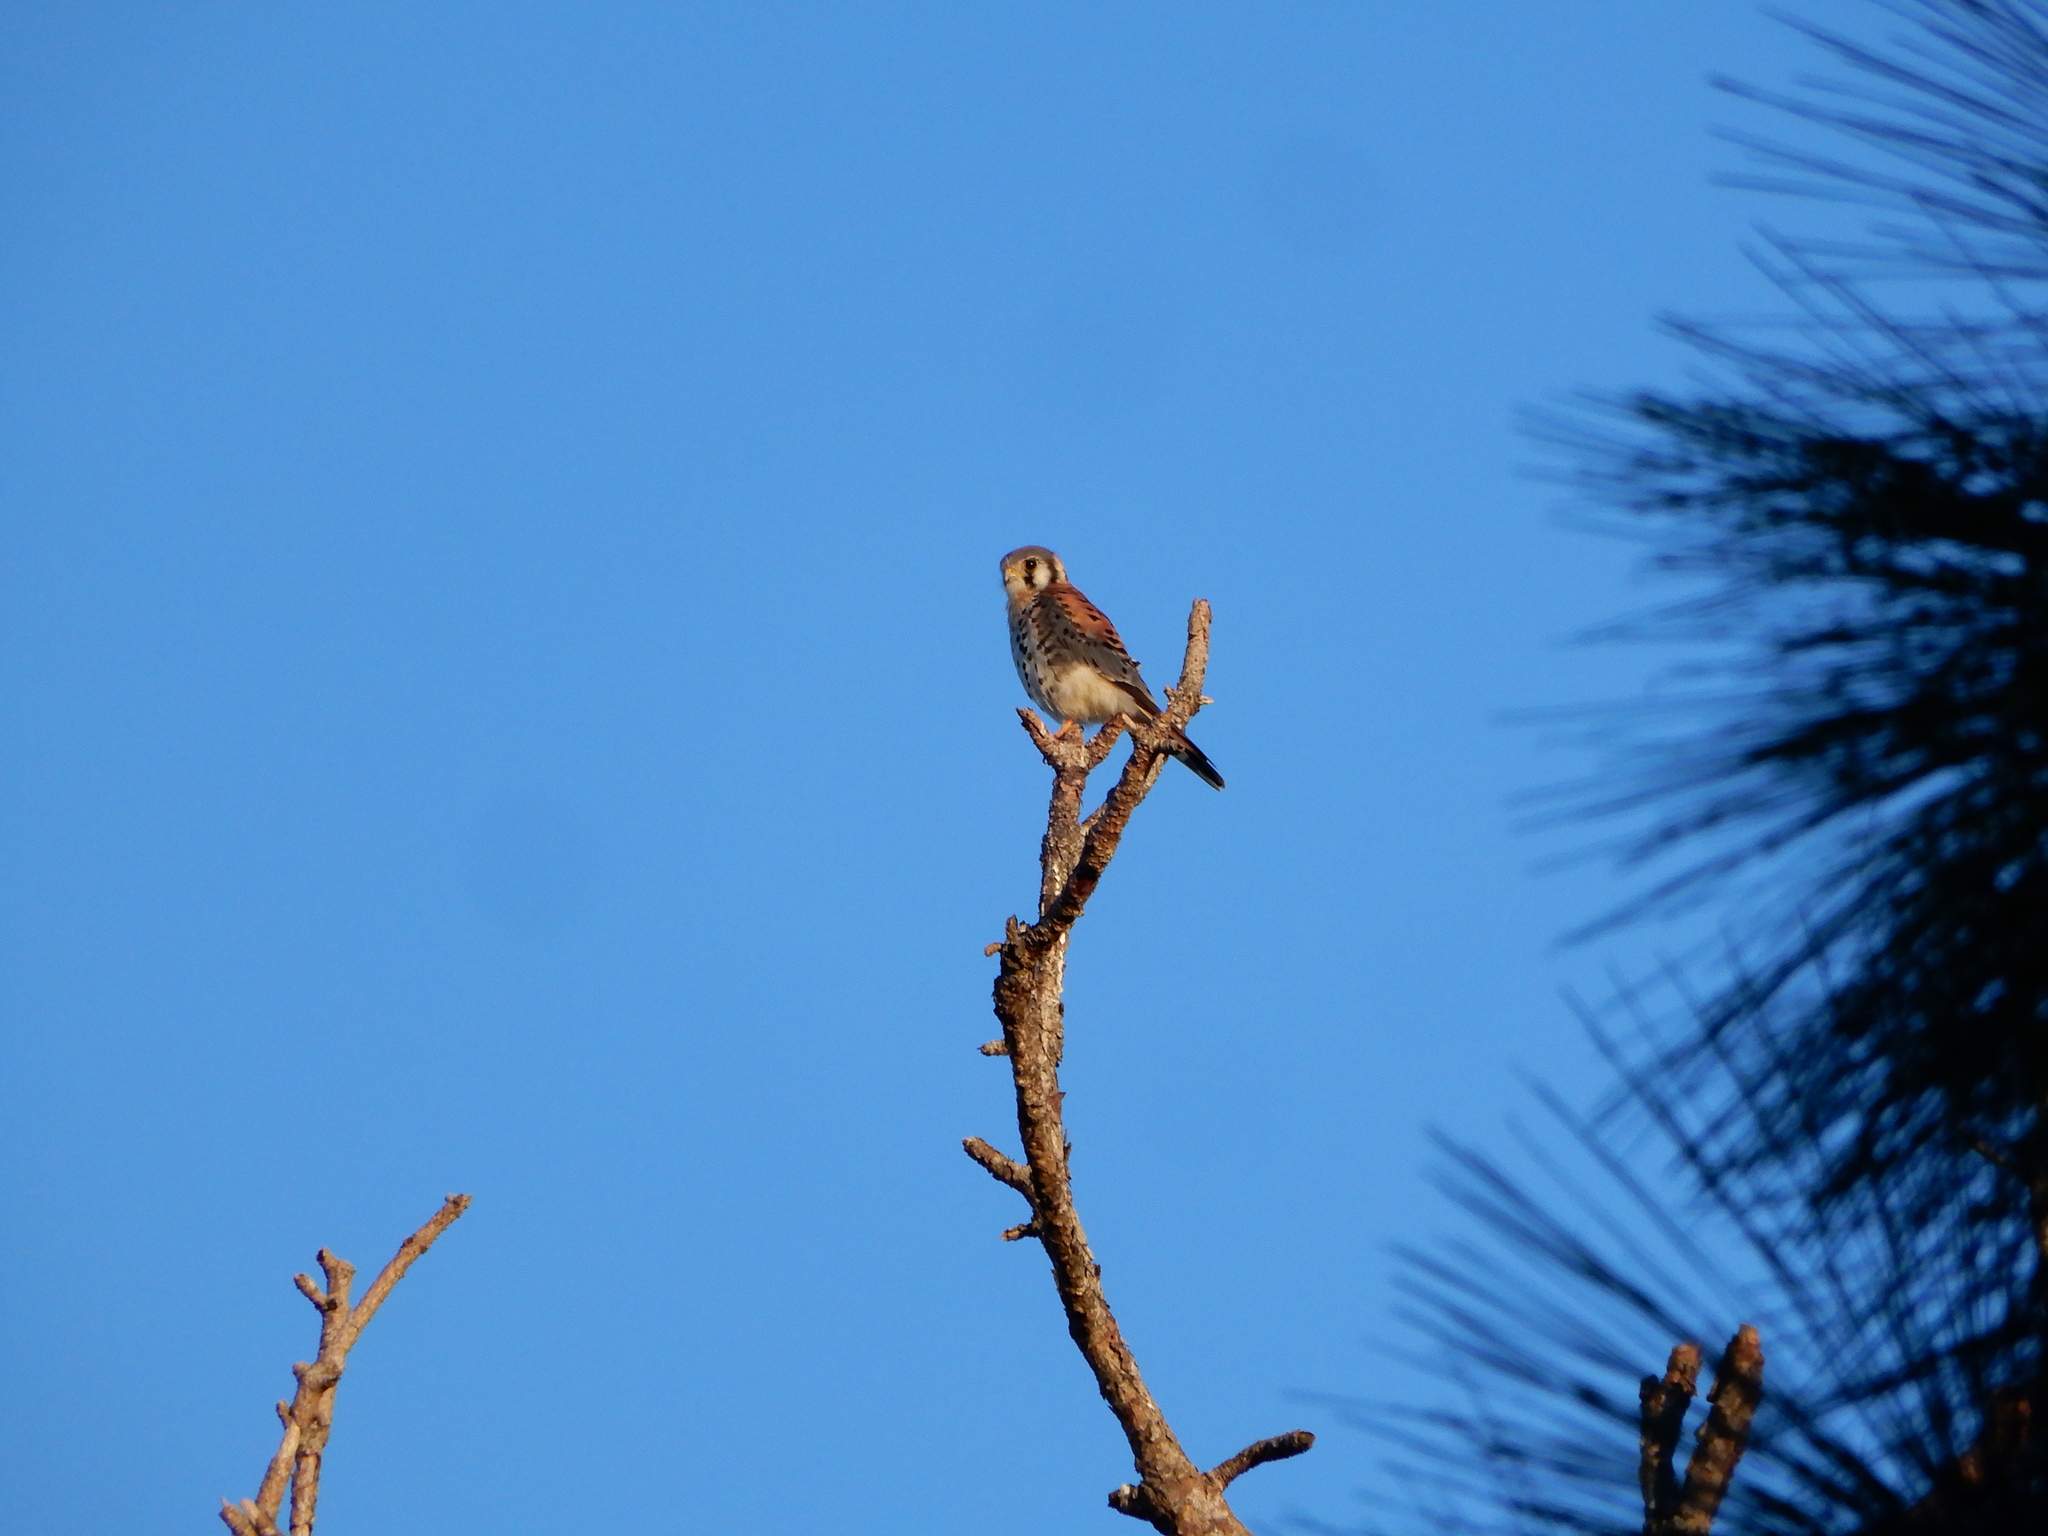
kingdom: Animalia
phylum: Chordata
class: Aves
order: Falconiformes
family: Falconidae
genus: Falco
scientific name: Falco sparverius
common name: American kestrel
